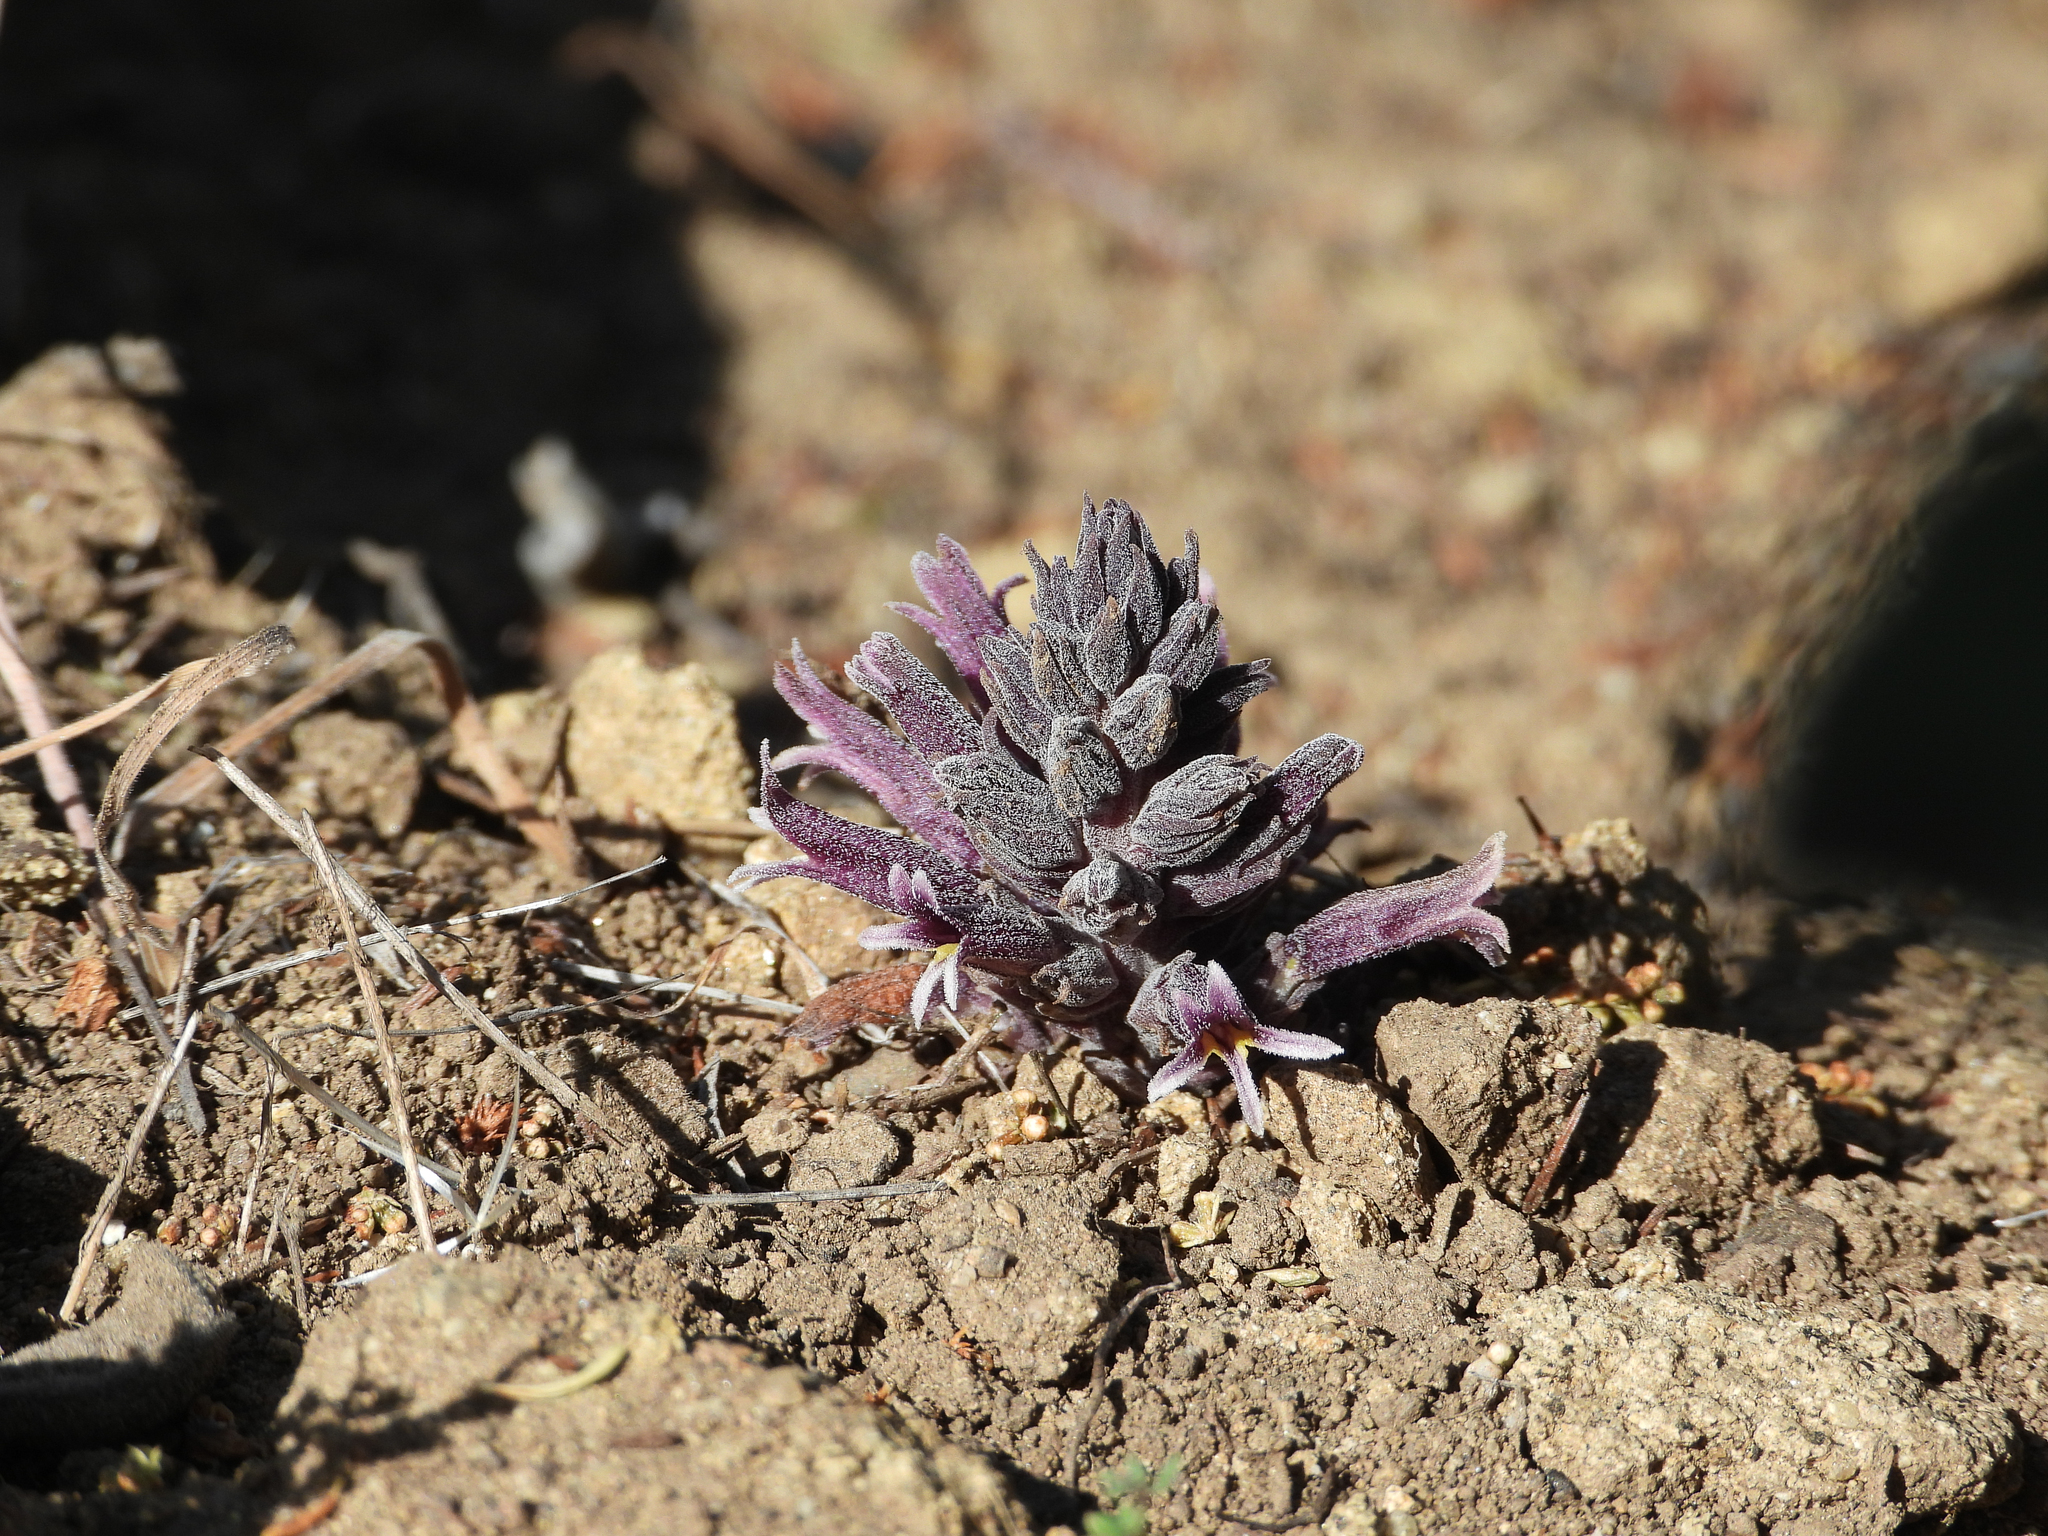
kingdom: Plantae
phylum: Tracheophyta
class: Magnoliopsida
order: Lamiales
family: Orobanchaceae
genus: Aphyllon
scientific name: Aphyllon tuberosum
